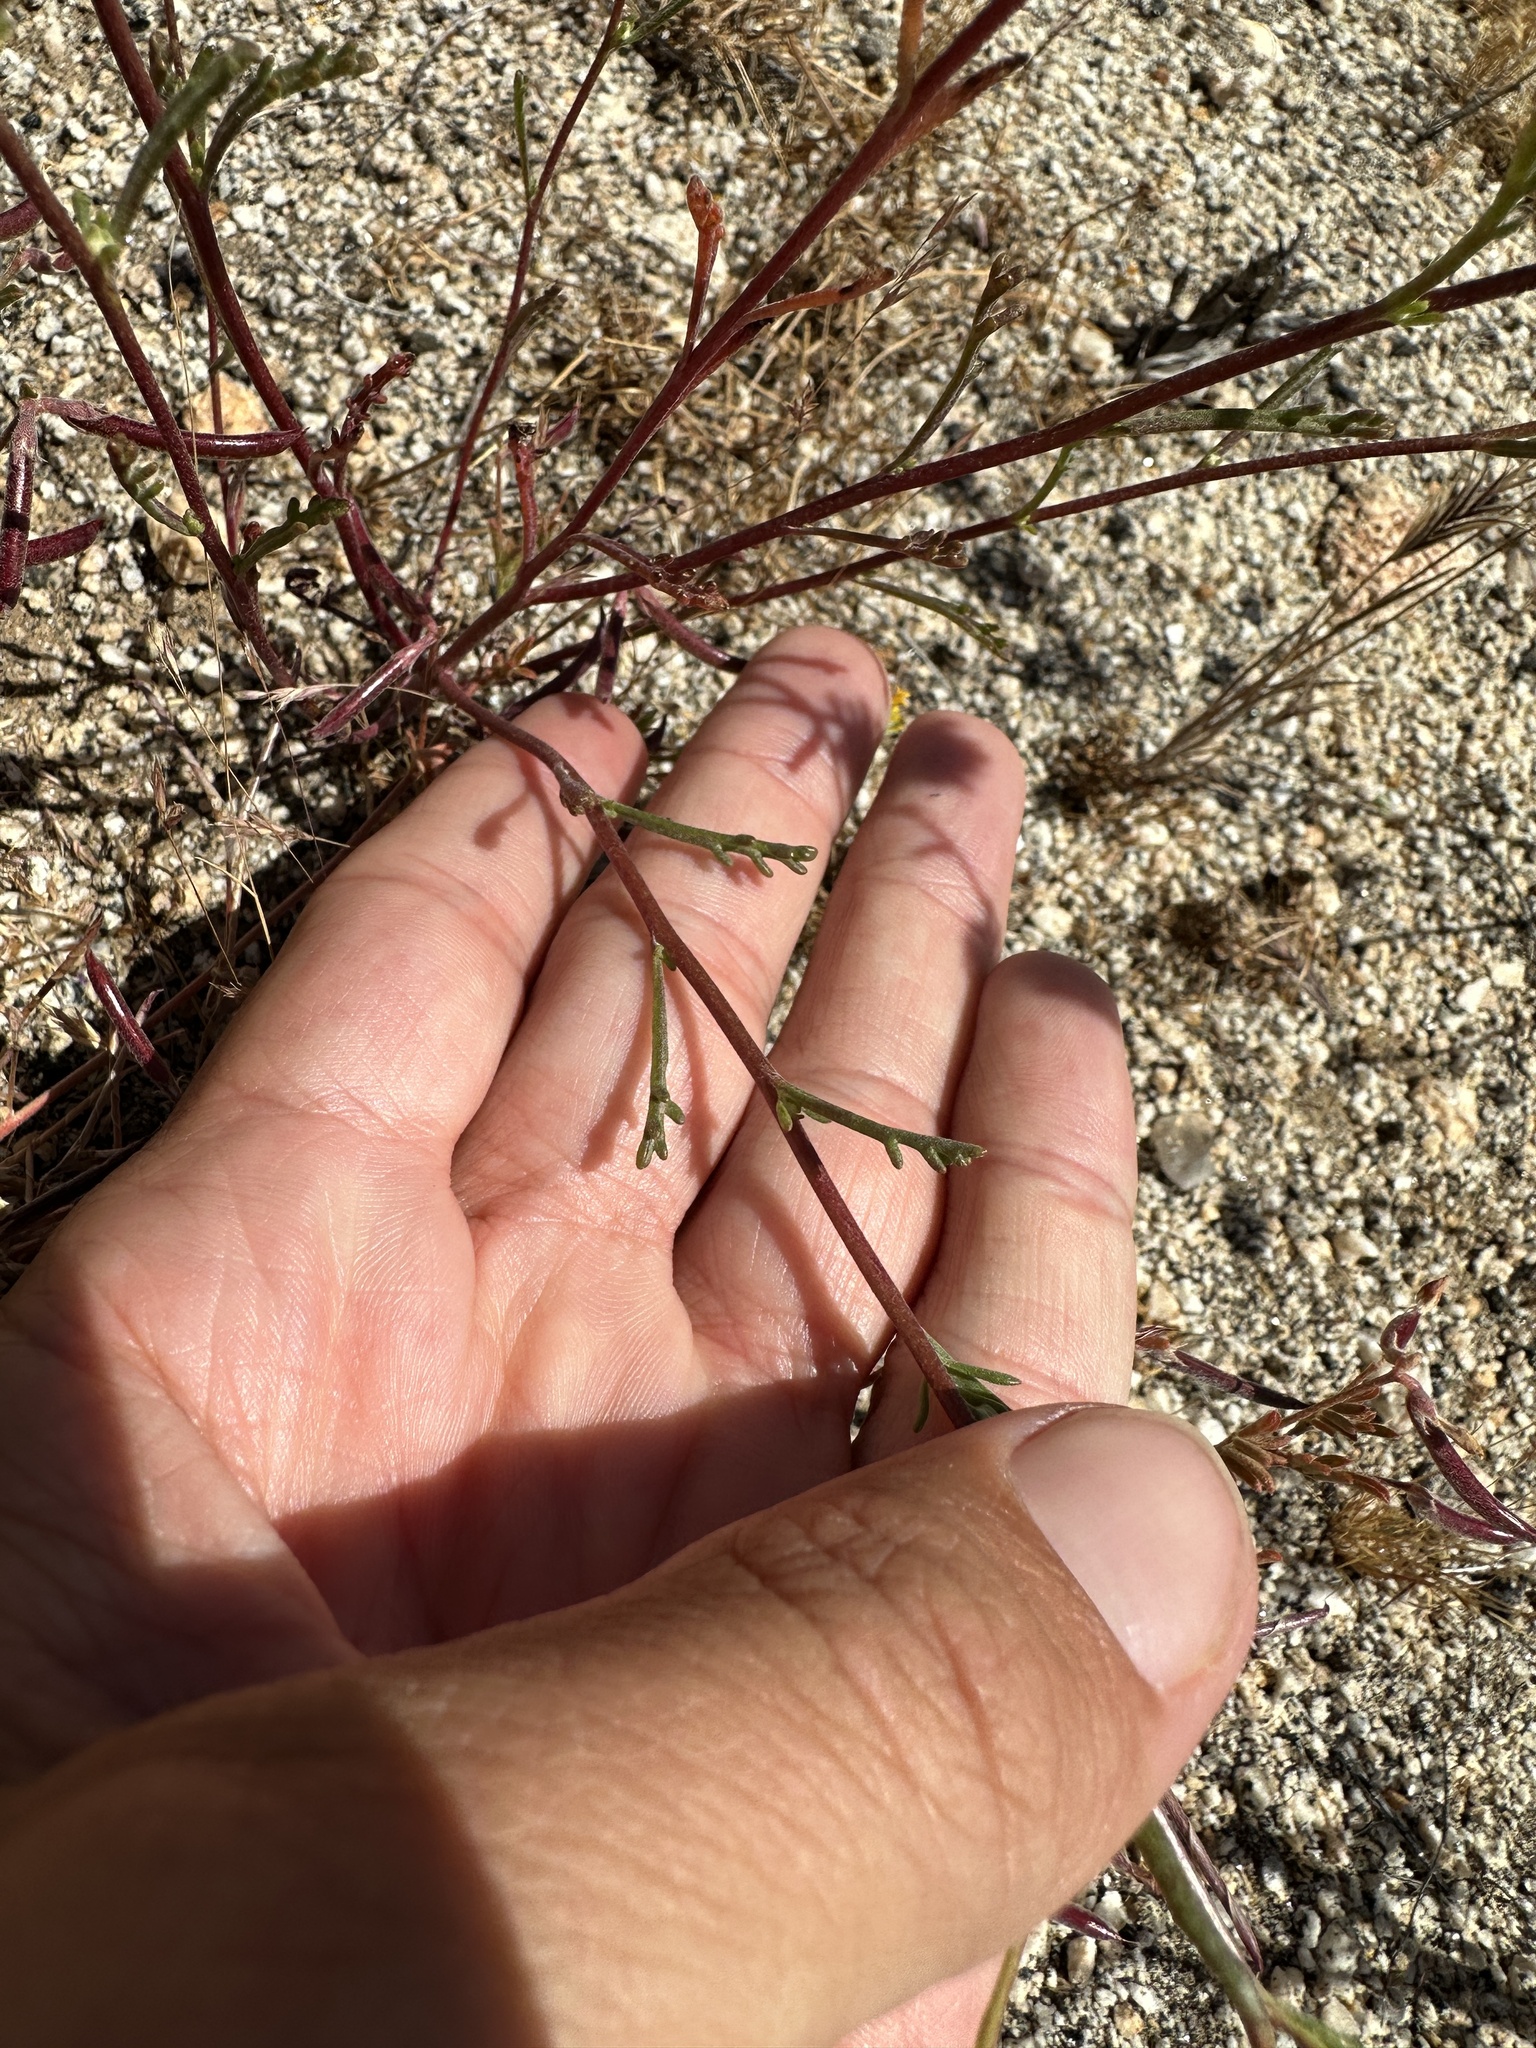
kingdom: Plantae
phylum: Tracheophyta
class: Magnoliopsida
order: Asterales
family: Asteraceae
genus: Chaenactis
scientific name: Chaenactis glabriuscula
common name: Yellow pincushion
